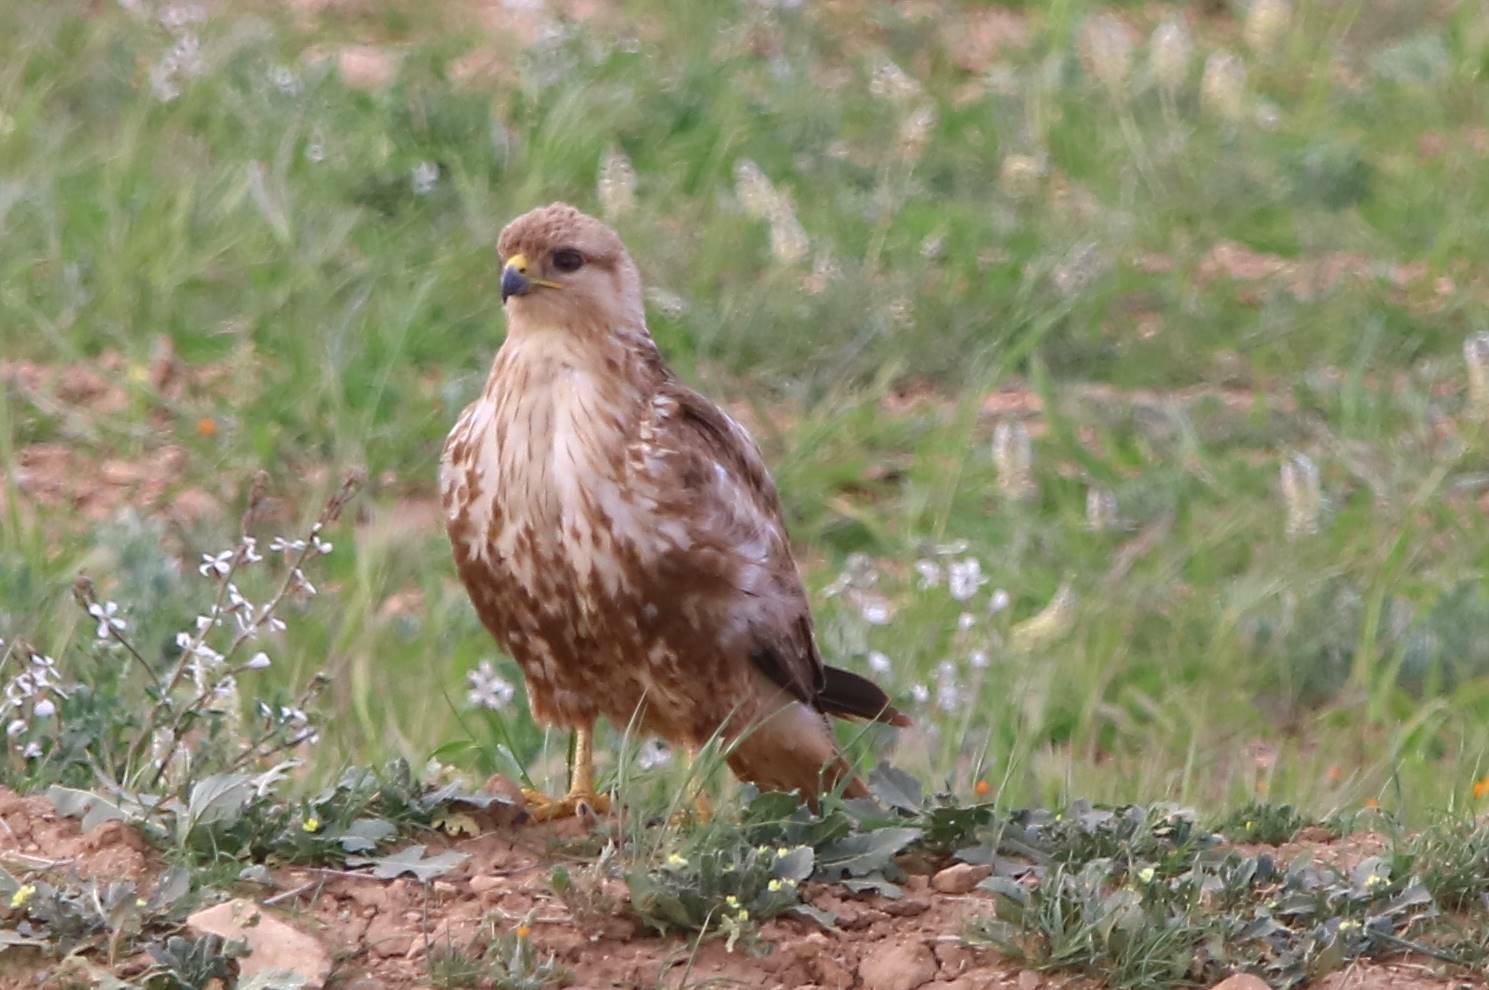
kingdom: Animalia
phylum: Chordata
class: Aves
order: Accipitriformes
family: Accipitridae
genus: Buteo
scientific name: Buteo rufinus
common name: Long-legged buzzard
